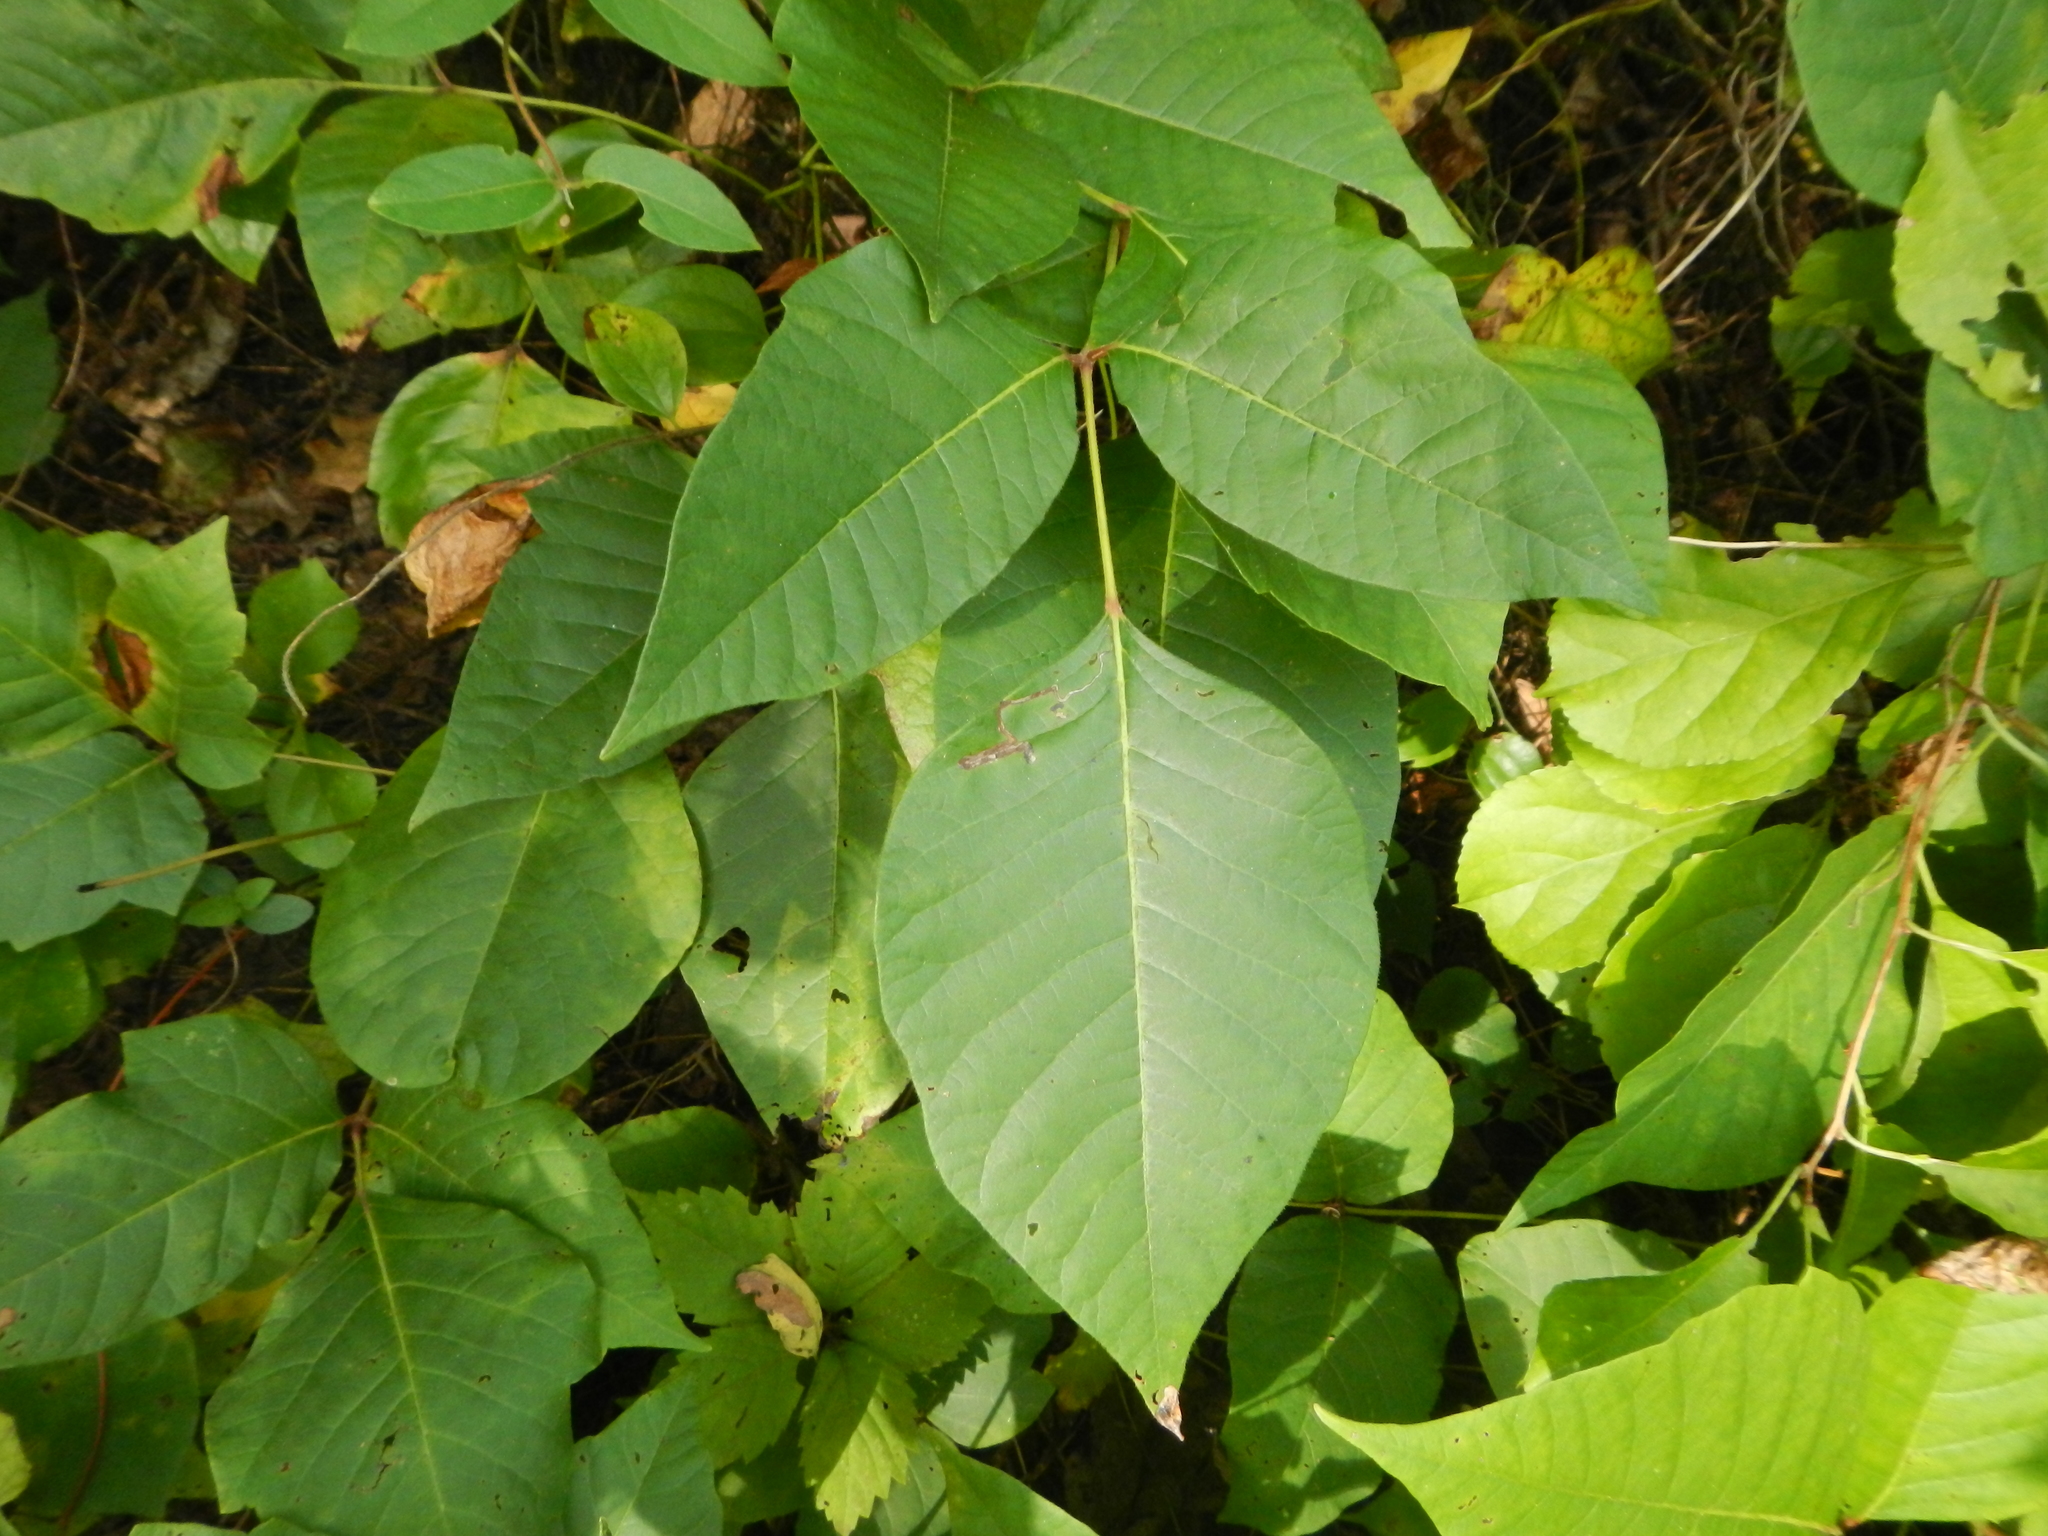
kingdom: Plantae
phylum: Tracheophyta
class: Magnoliopsida
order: Sapindales
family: Anacardiaceae
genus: Toxicodendron
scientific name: Toxicodendron radicans
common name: Poison ivy
